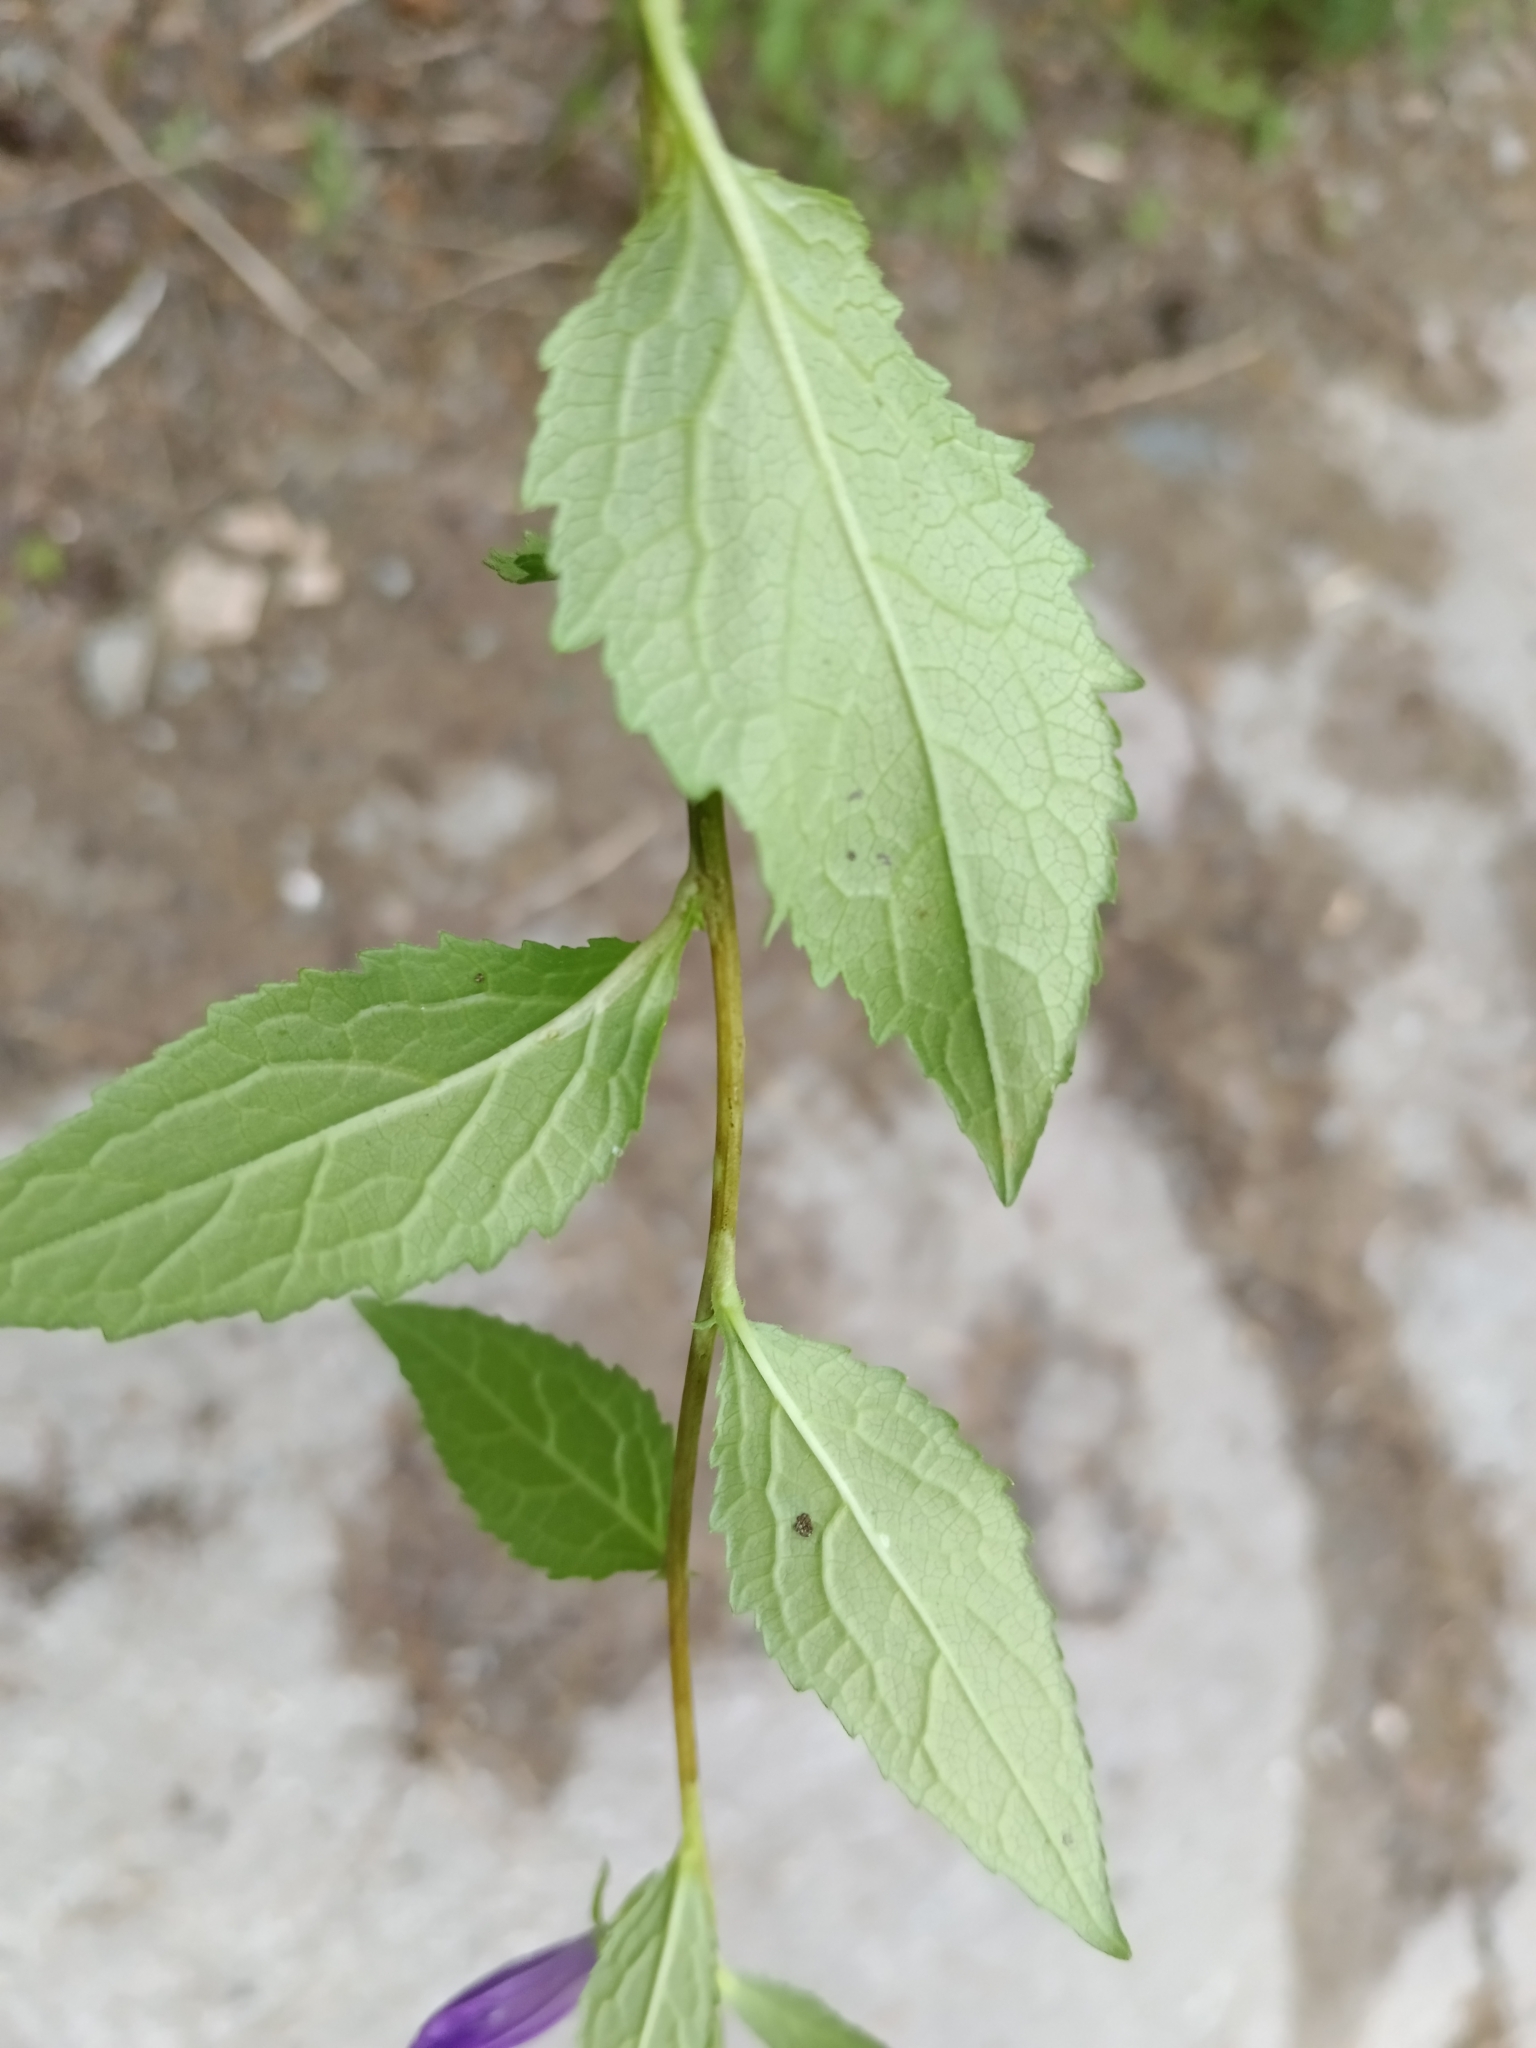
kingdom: Plantae
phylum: Tracheophyta
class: Magnoliopsida
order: Asterales
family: Campanulaceae
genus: Campanula
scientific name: Campanula rapunculoides
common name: Creeping bellflower
